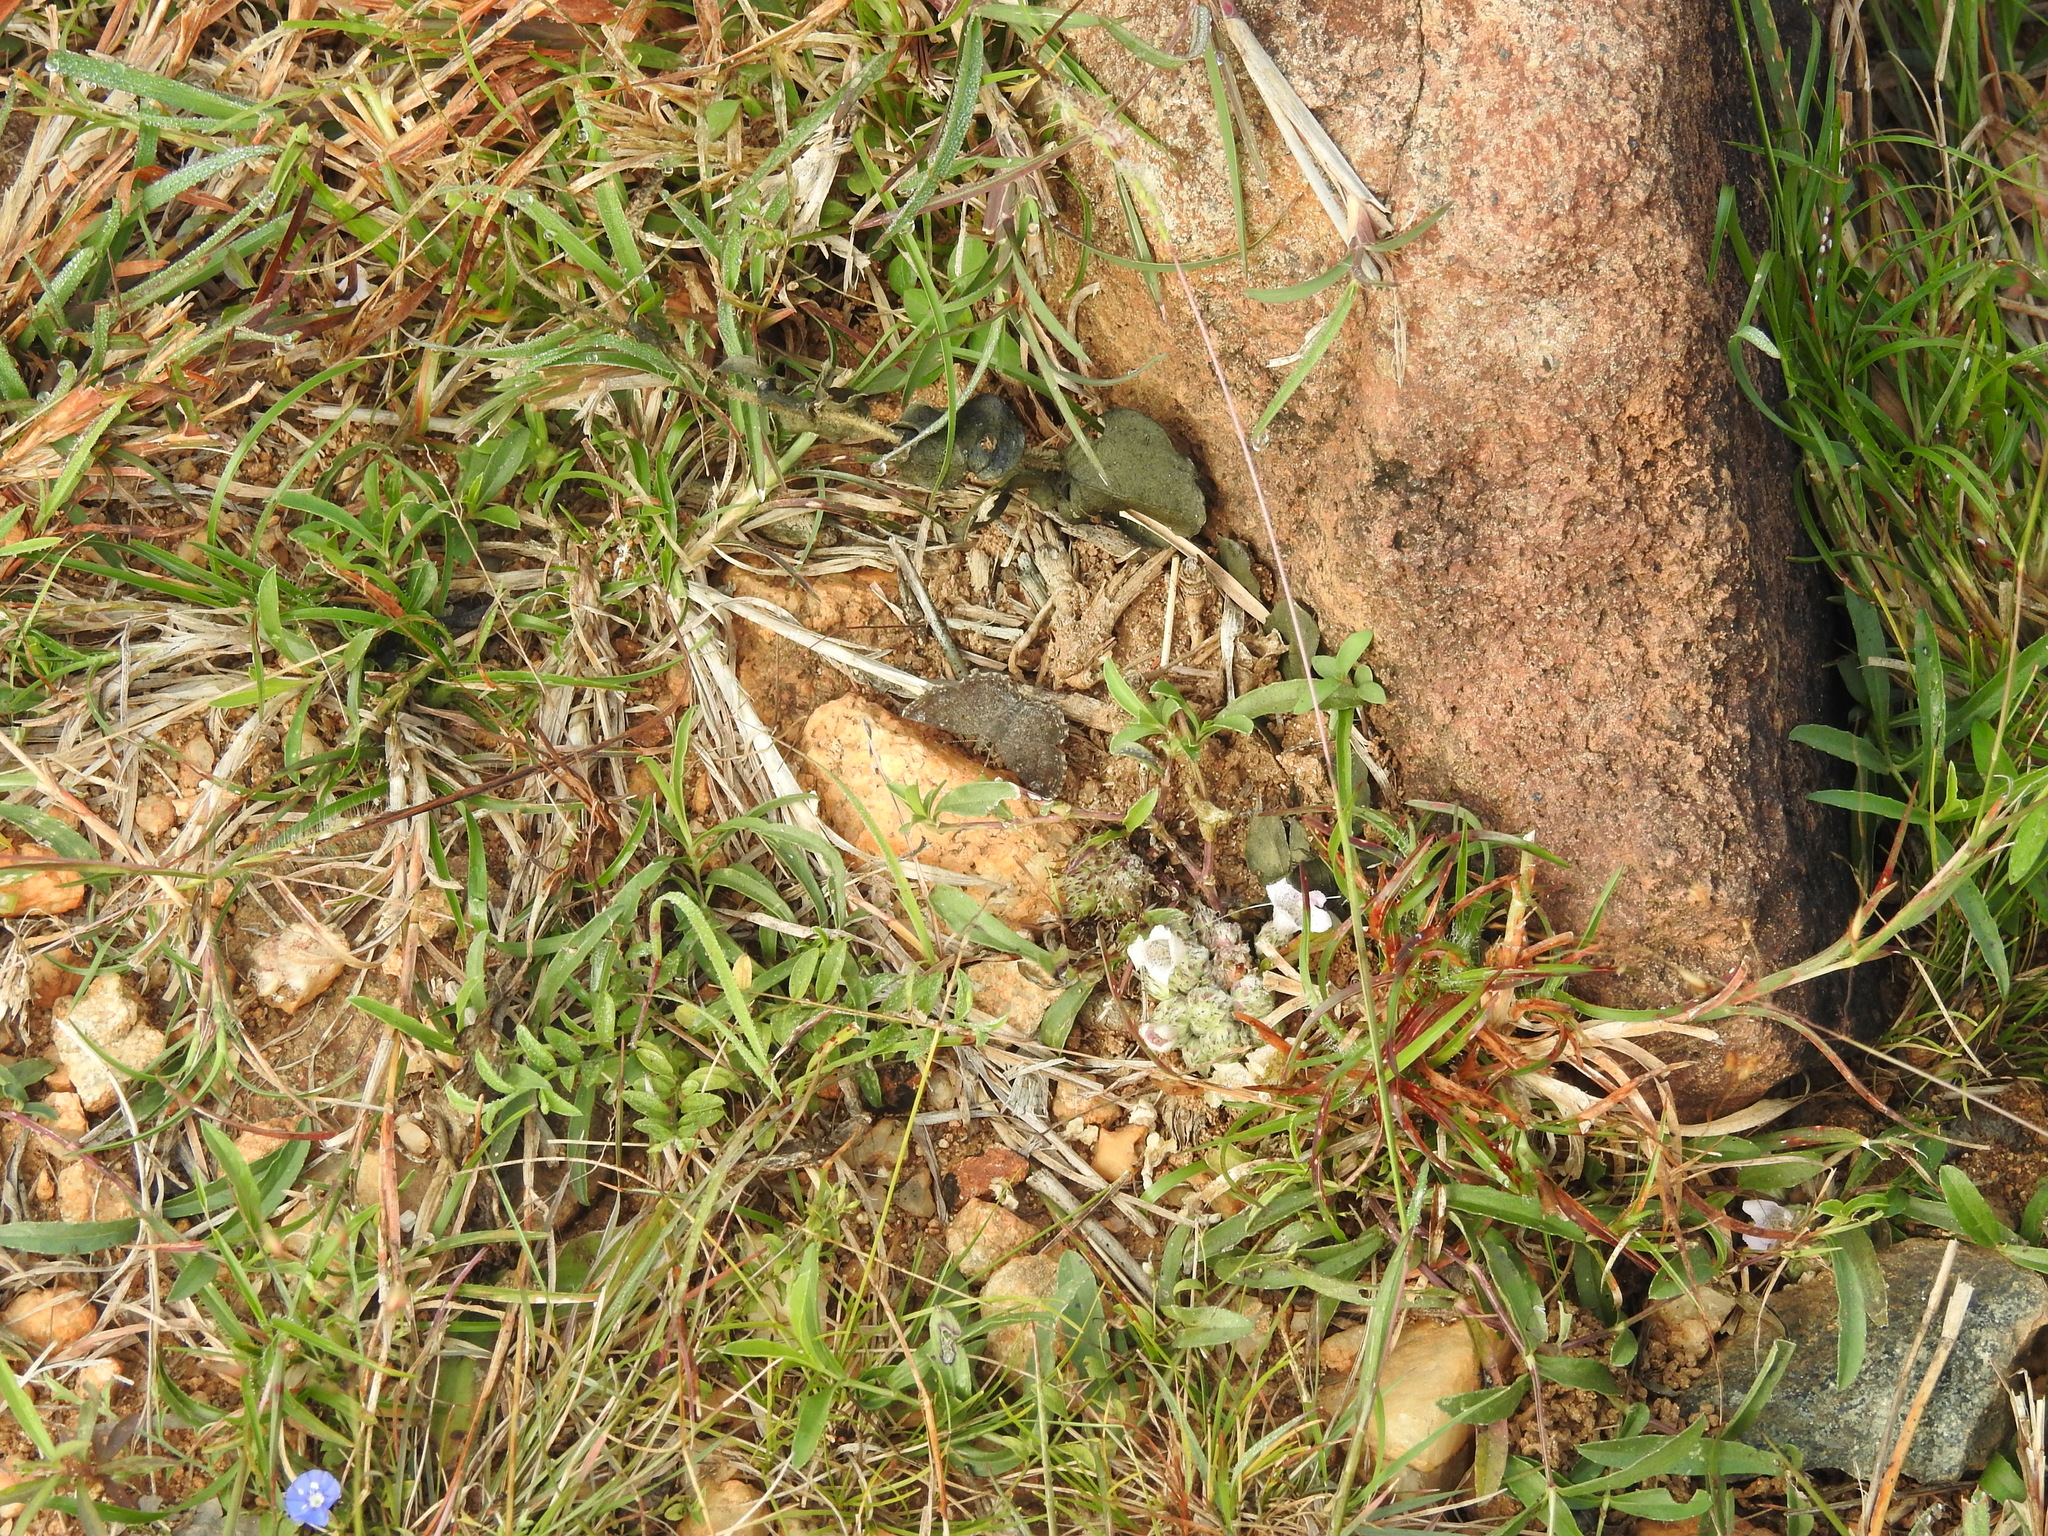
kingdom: Animalia
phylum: Arthropoda
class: Insecta
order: Lepidoptera
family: Hesperiidae
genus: Sarangesa
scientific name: Sarangesa purendra
